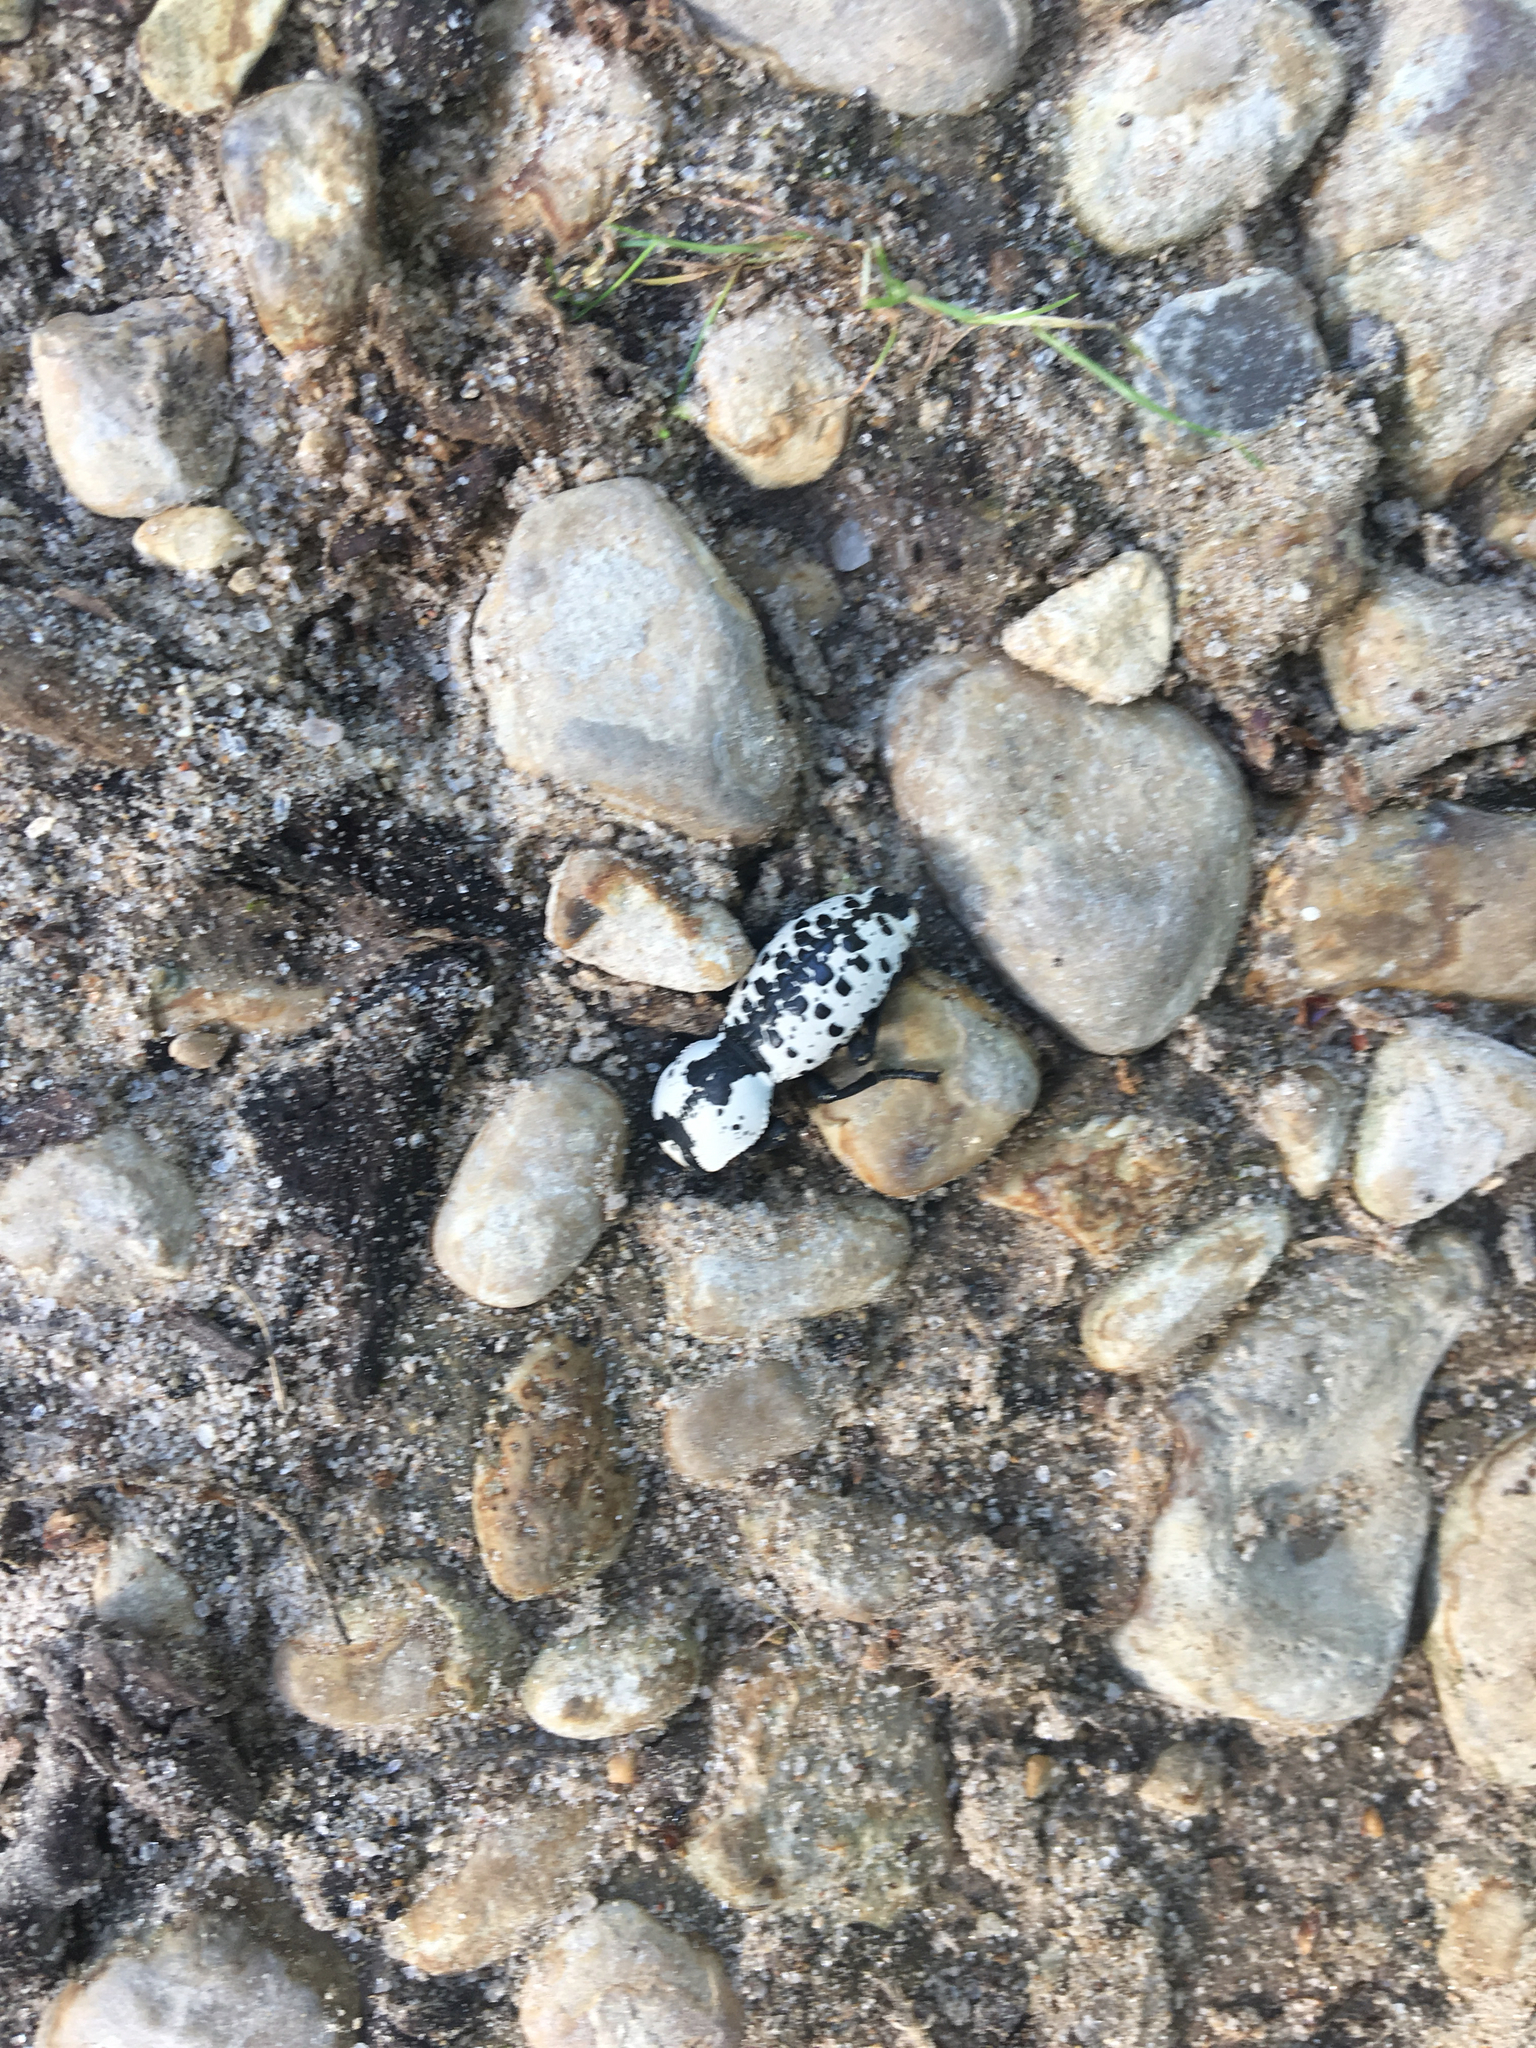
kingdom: Animalia
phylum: Arthropoda
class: Insecta
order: Coleoptera
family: Zopheridae
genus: Zopherus
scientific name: Zopherus nodulosus
